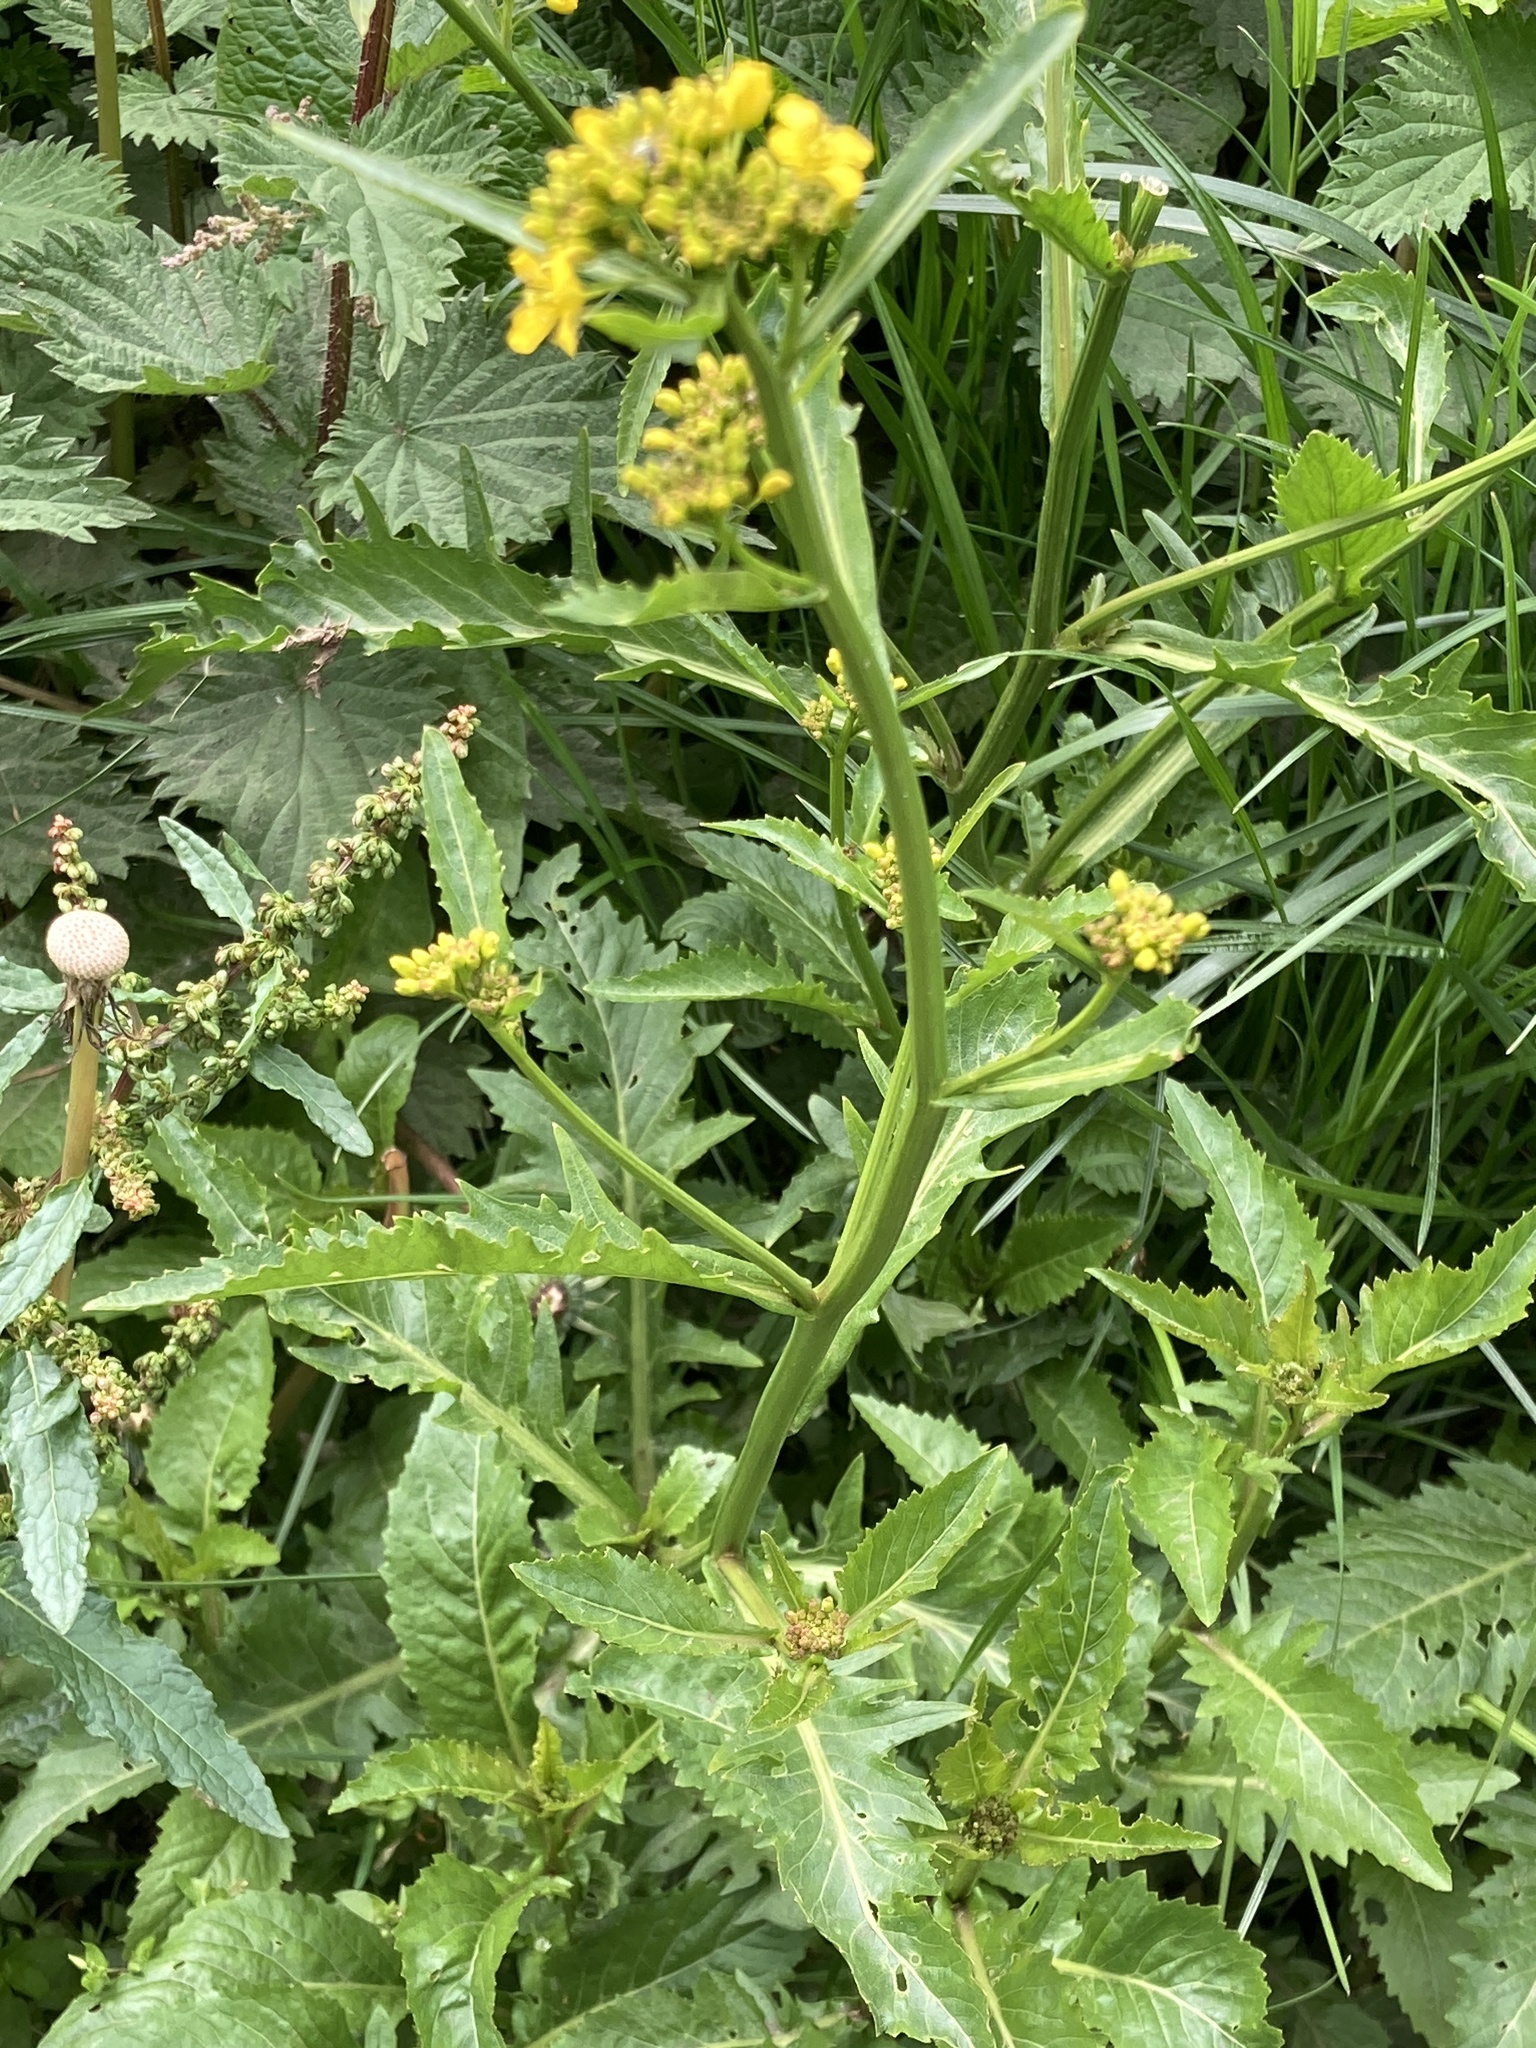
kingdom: Plantae
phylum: Tracheophyta
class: Magnoliopsida
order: Brassicales
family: Brassicaceae
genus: Rorippa
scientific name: Rorippa amphibia
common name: Great yellow-cress
